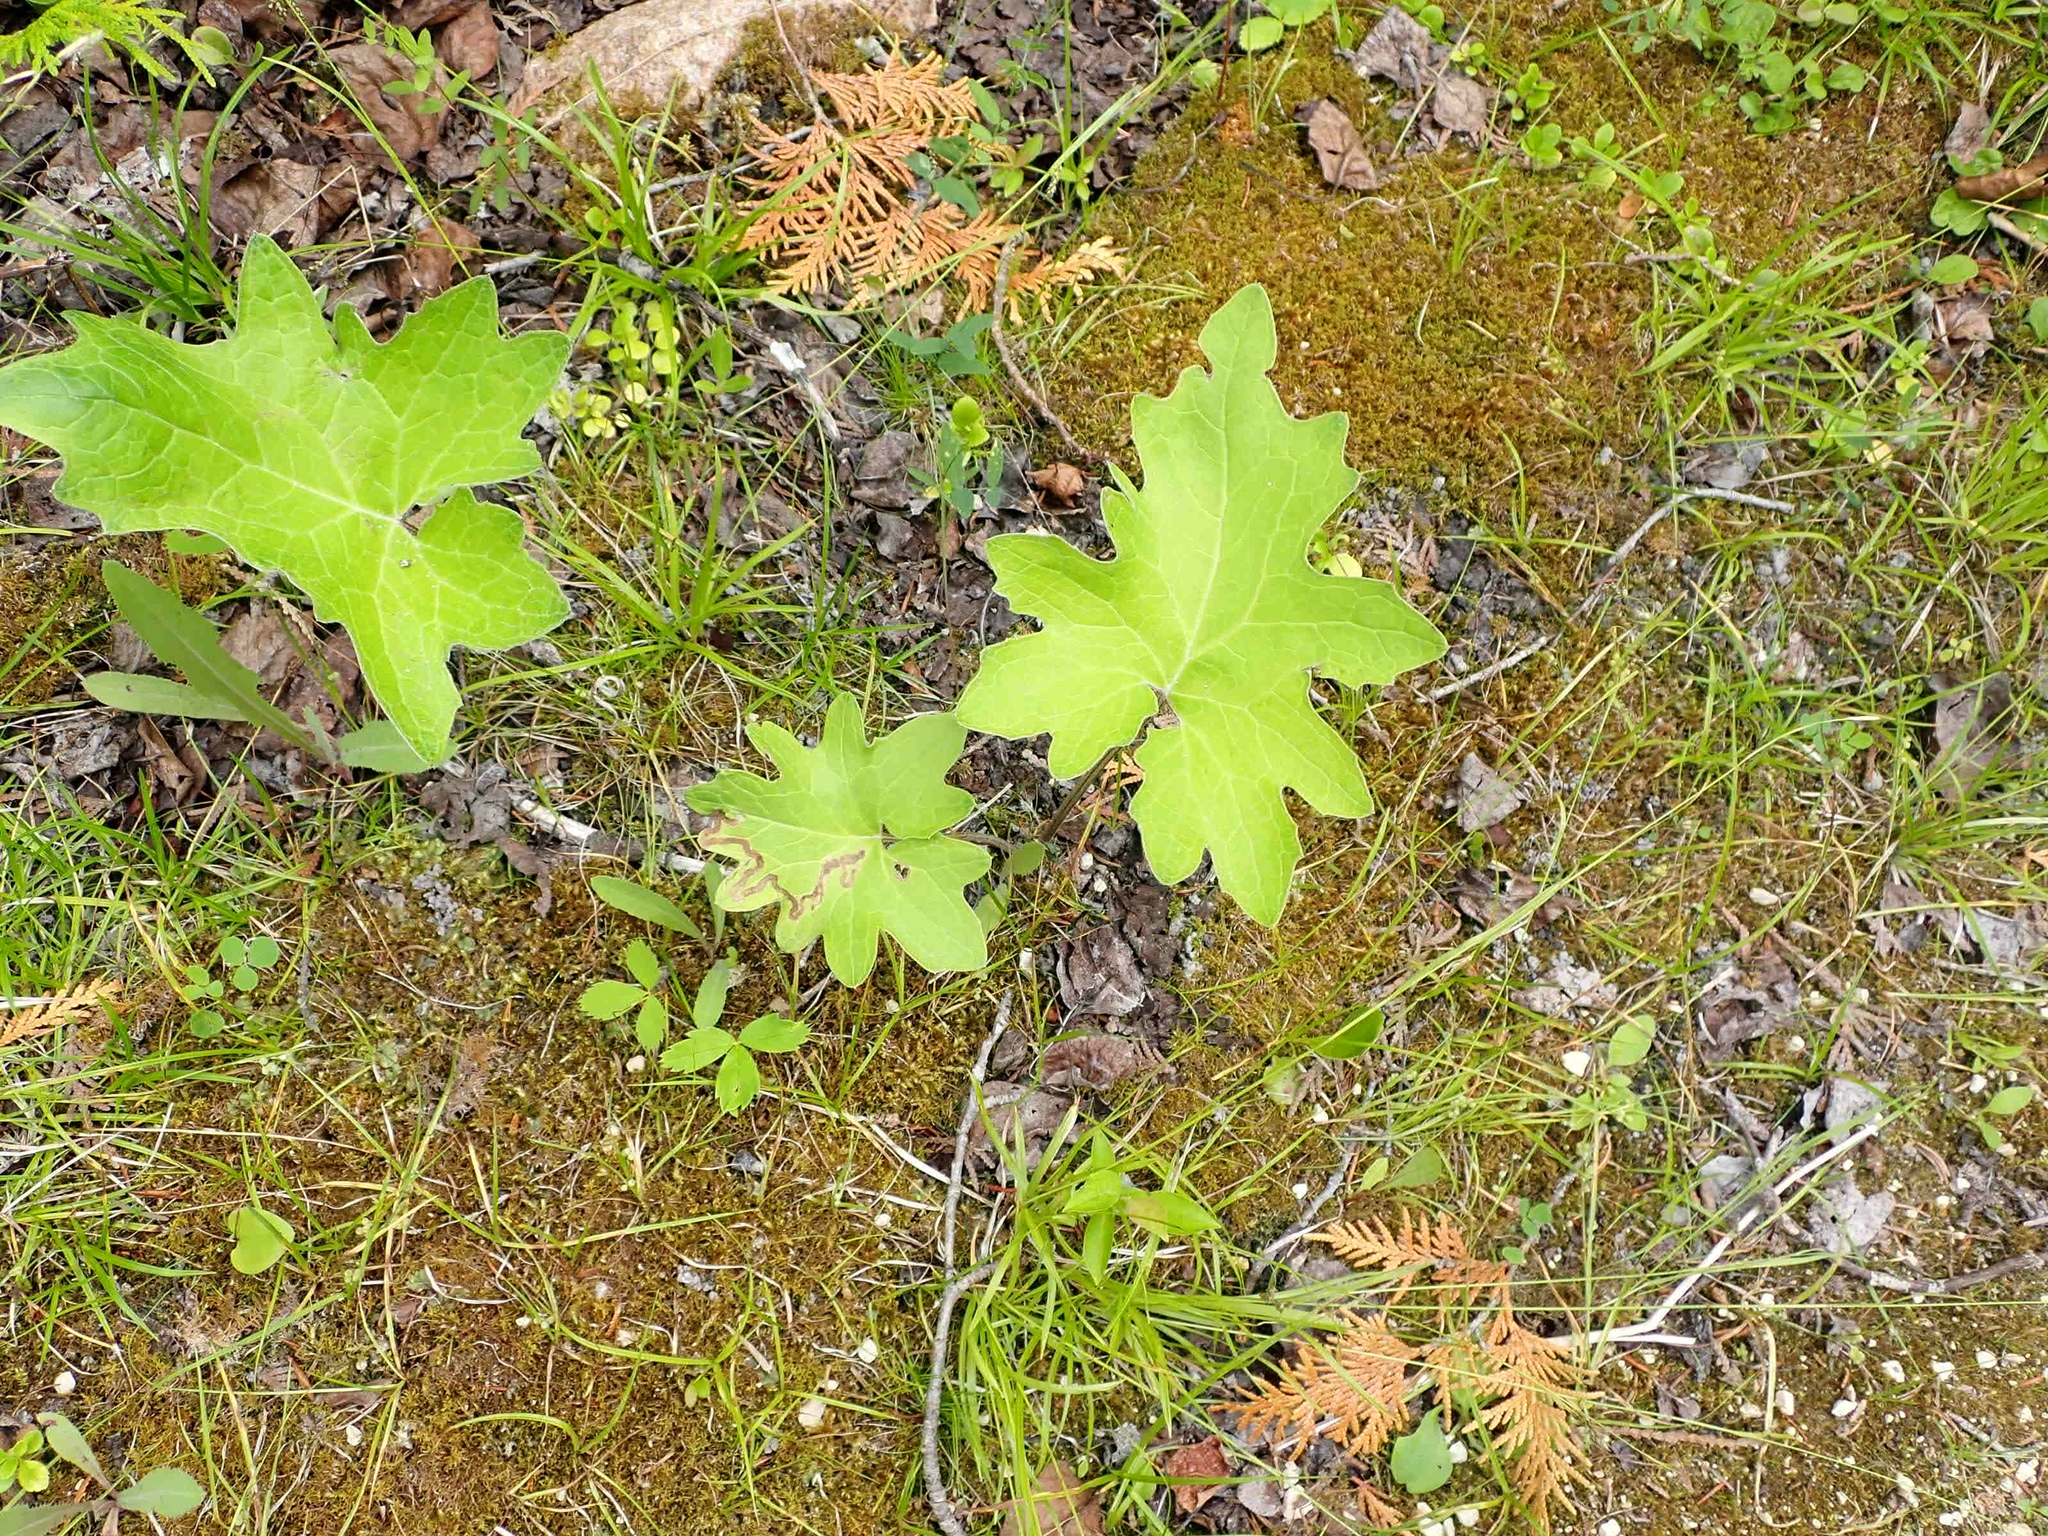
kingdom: Plantae
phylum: Tracheophyta
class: Magnoliopsida
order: Asterales
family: Asteraceae
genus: Petasites
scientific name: Petasites frigidus
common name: Arctic butterbur
